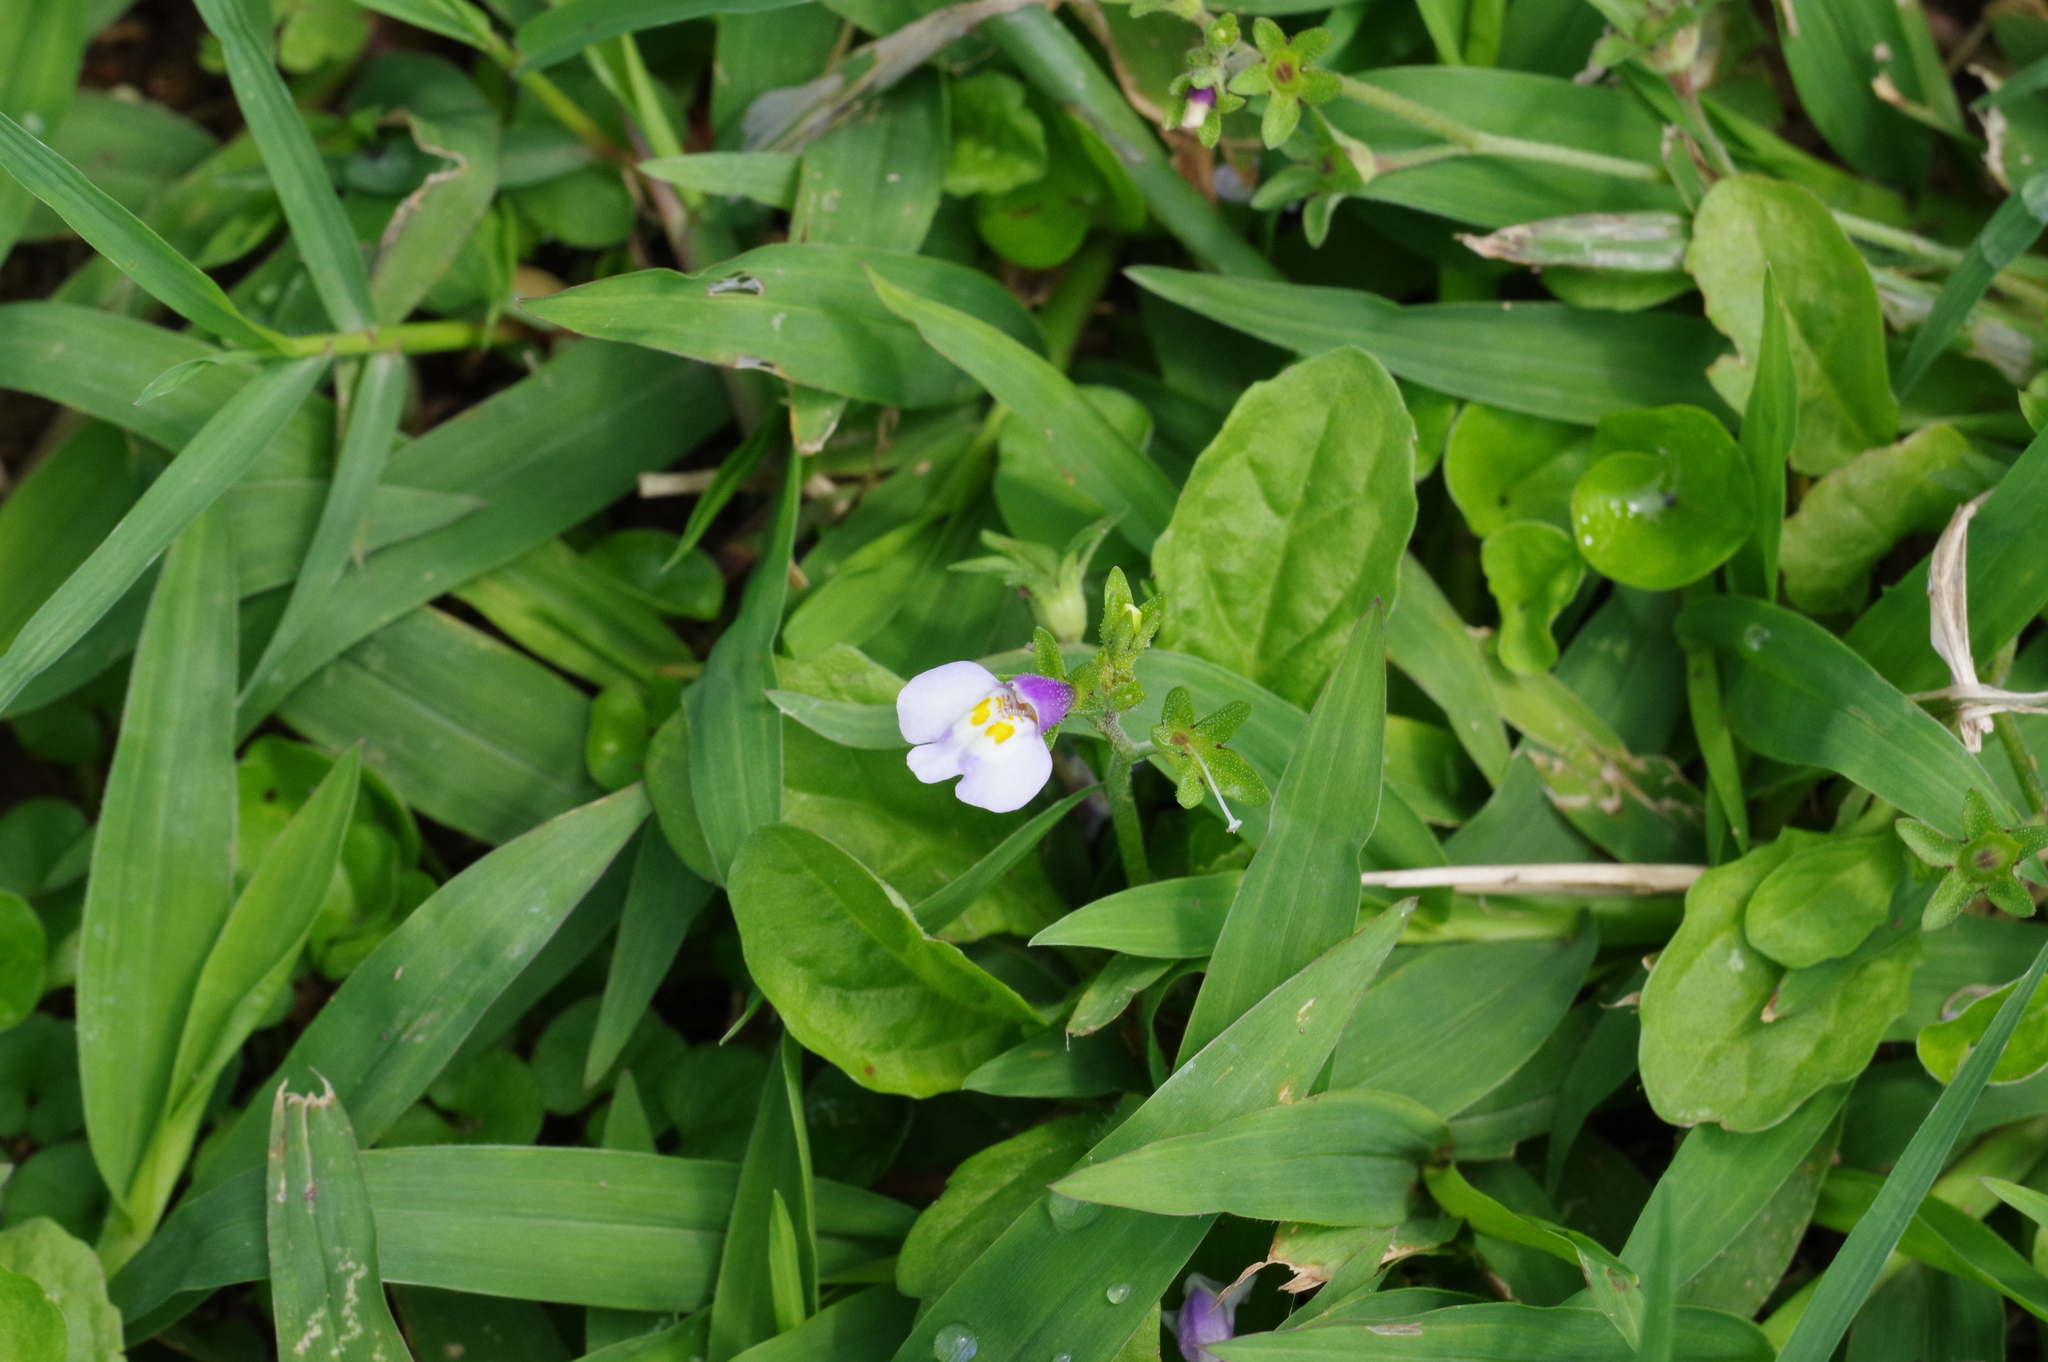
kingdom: Plantae
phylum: Tracheophyta
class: Magnoliopsida
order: Lamiales
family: Mazaceae
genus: Mazus
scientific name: Mazus pumilus
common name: Japanese mazus
